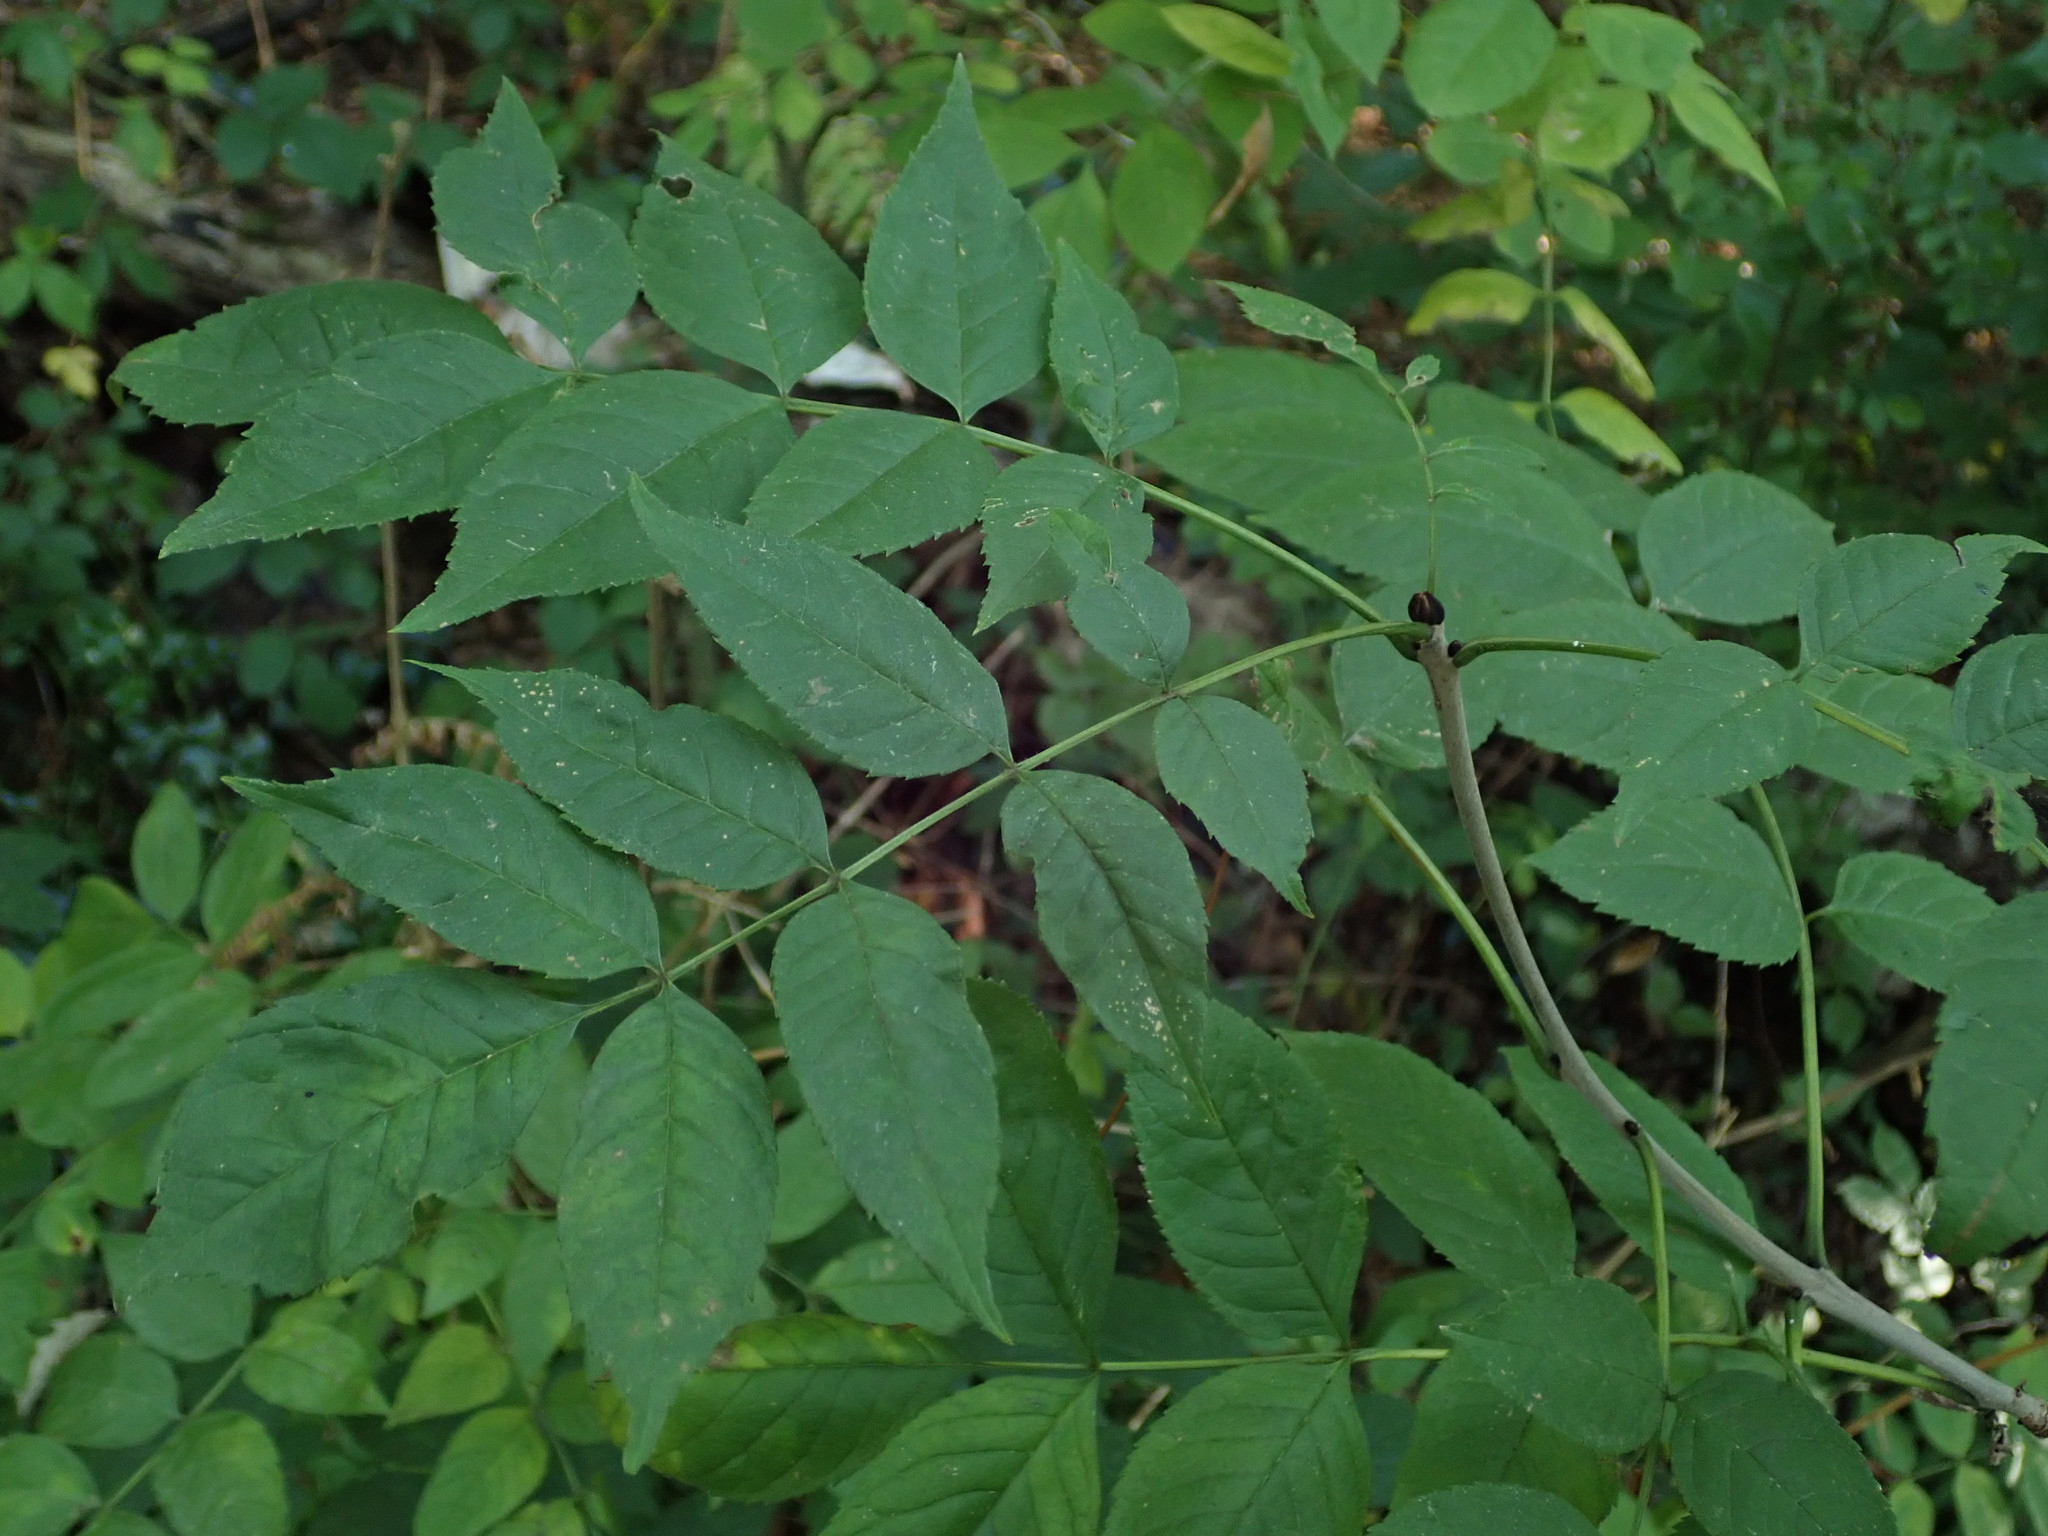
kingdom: Plantae
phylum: Tracheophyta
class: Magnoliopsida
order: Lamiales
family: Oleaceae
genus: Fraxinus
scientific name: Fraxinus excelsior
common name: European ash
